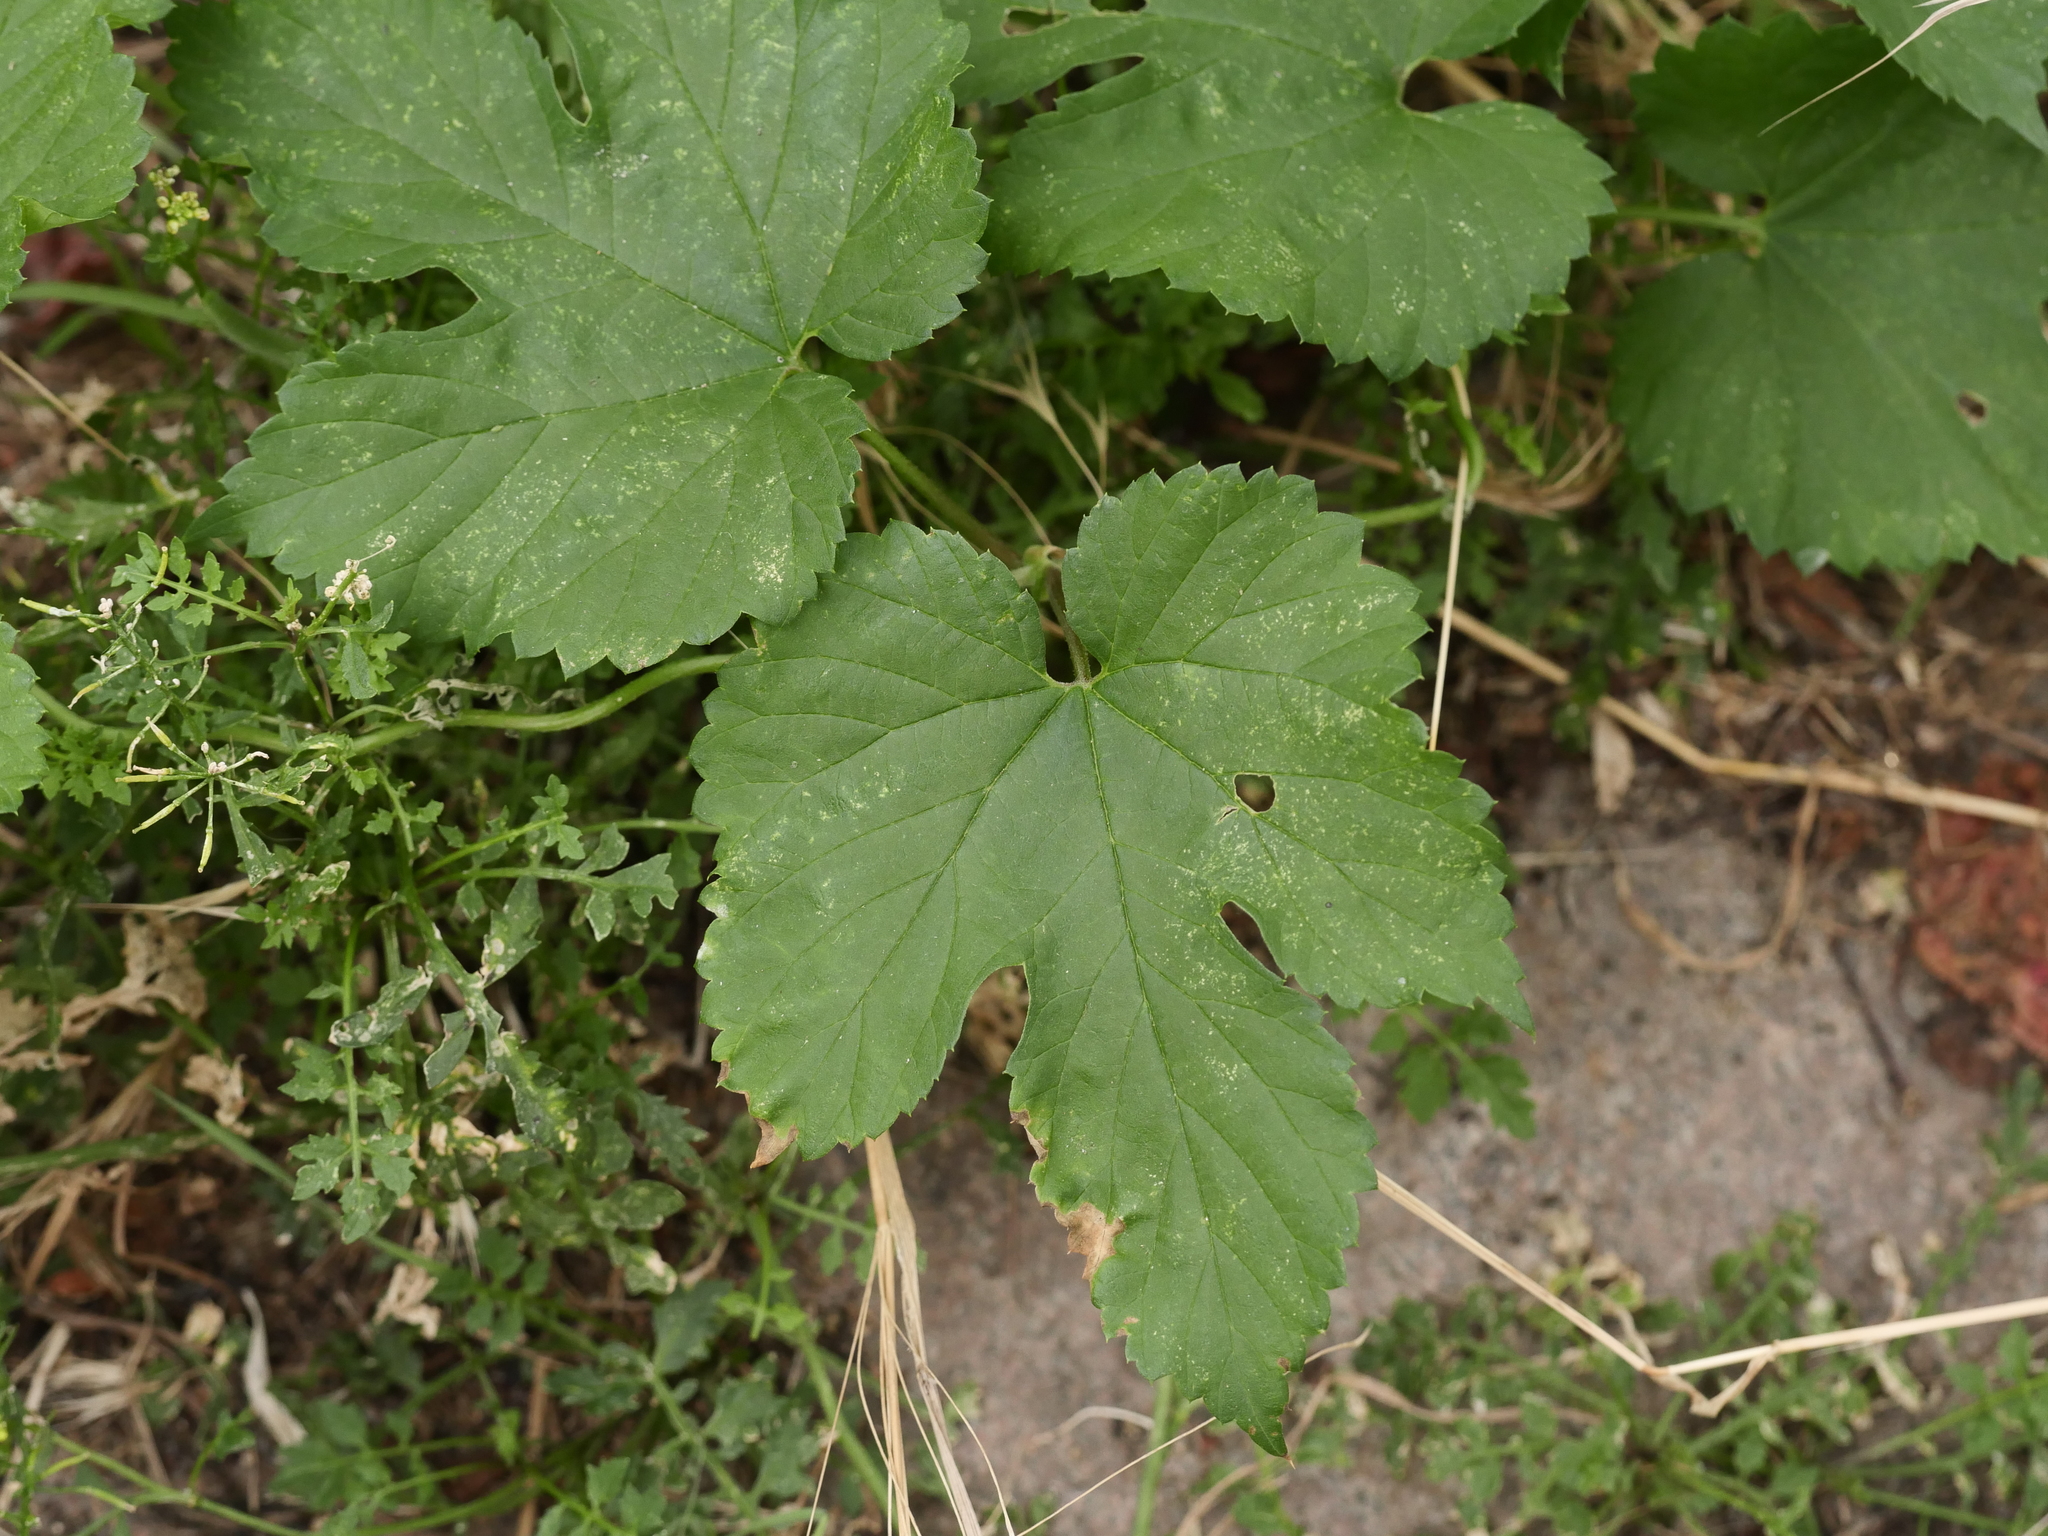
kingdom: Plantae
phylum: Tracheophyta
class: Magnoliopsida
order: Rosales
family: Cannabaceae
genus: Humulus
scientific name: Humulus lupulus
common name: Hop
